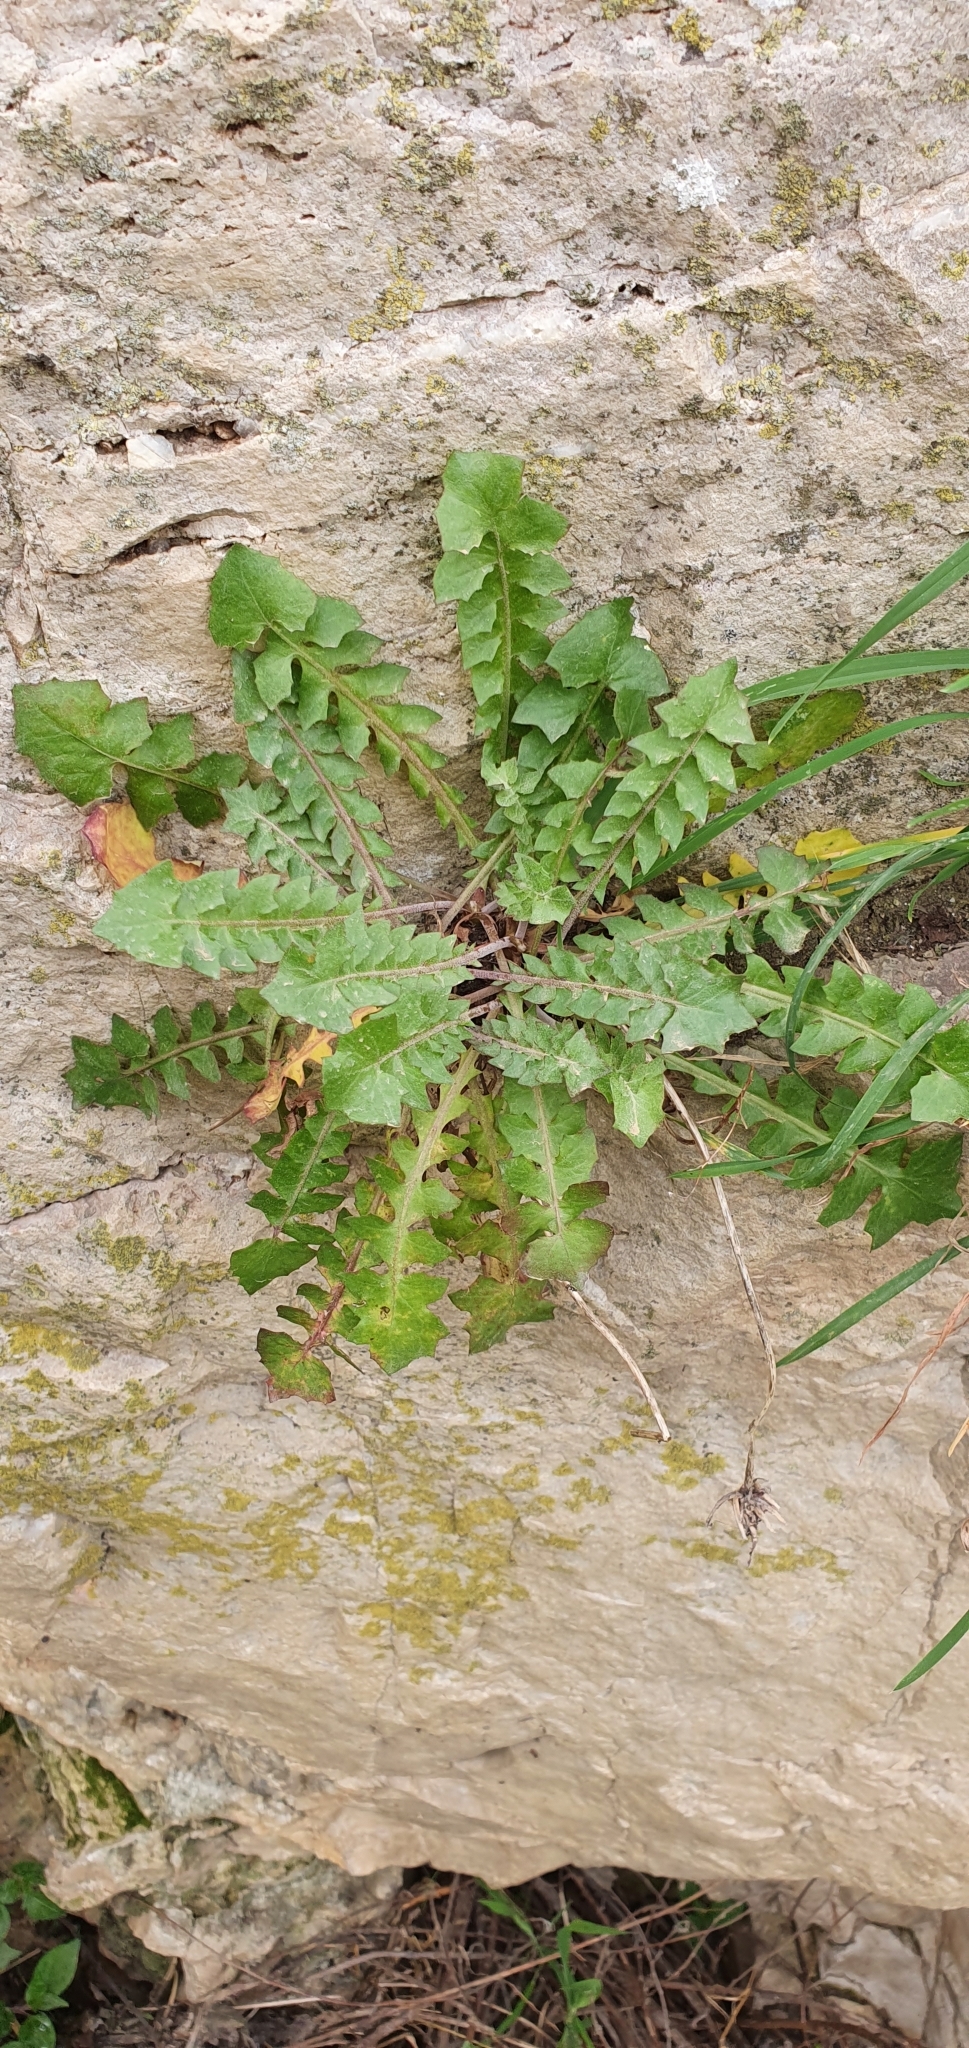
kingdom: Plantae
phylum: Tracheophyta
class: Magnoliopsida
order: Asterales
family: Asteraceae
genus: Hyoseris
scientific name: Hyoseris radiata
